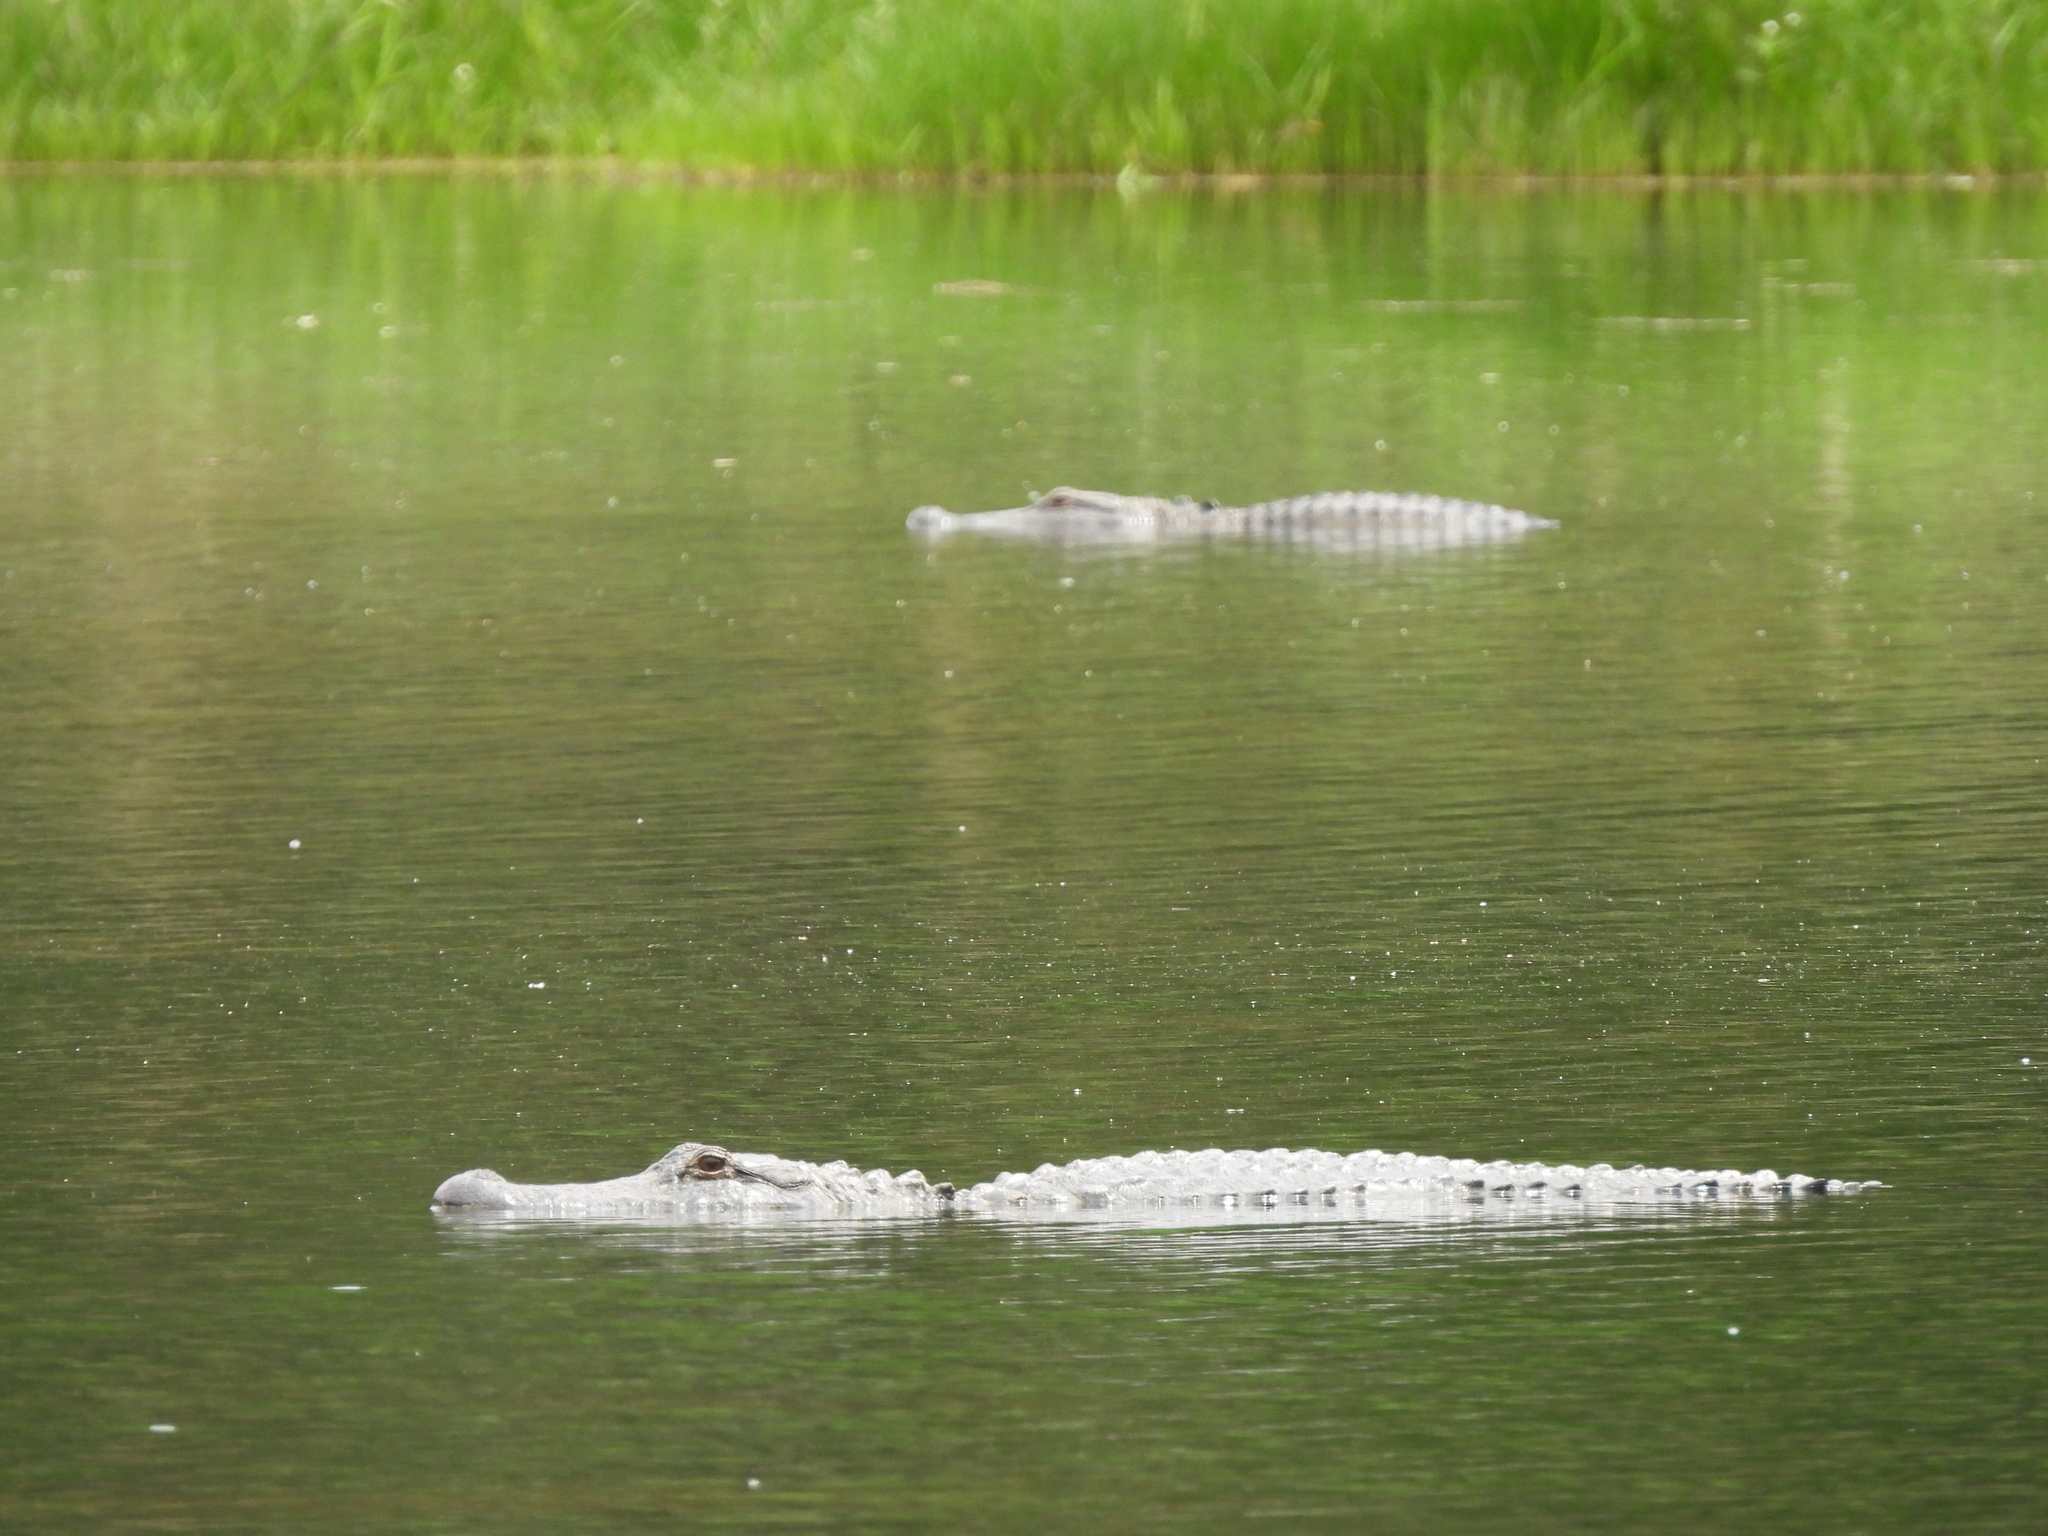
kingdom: Animalia
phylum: Chordata
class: Crocodylia
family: Alligatoridae
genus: Alligator
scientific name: Alligator mississippiensis
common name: American alligator
